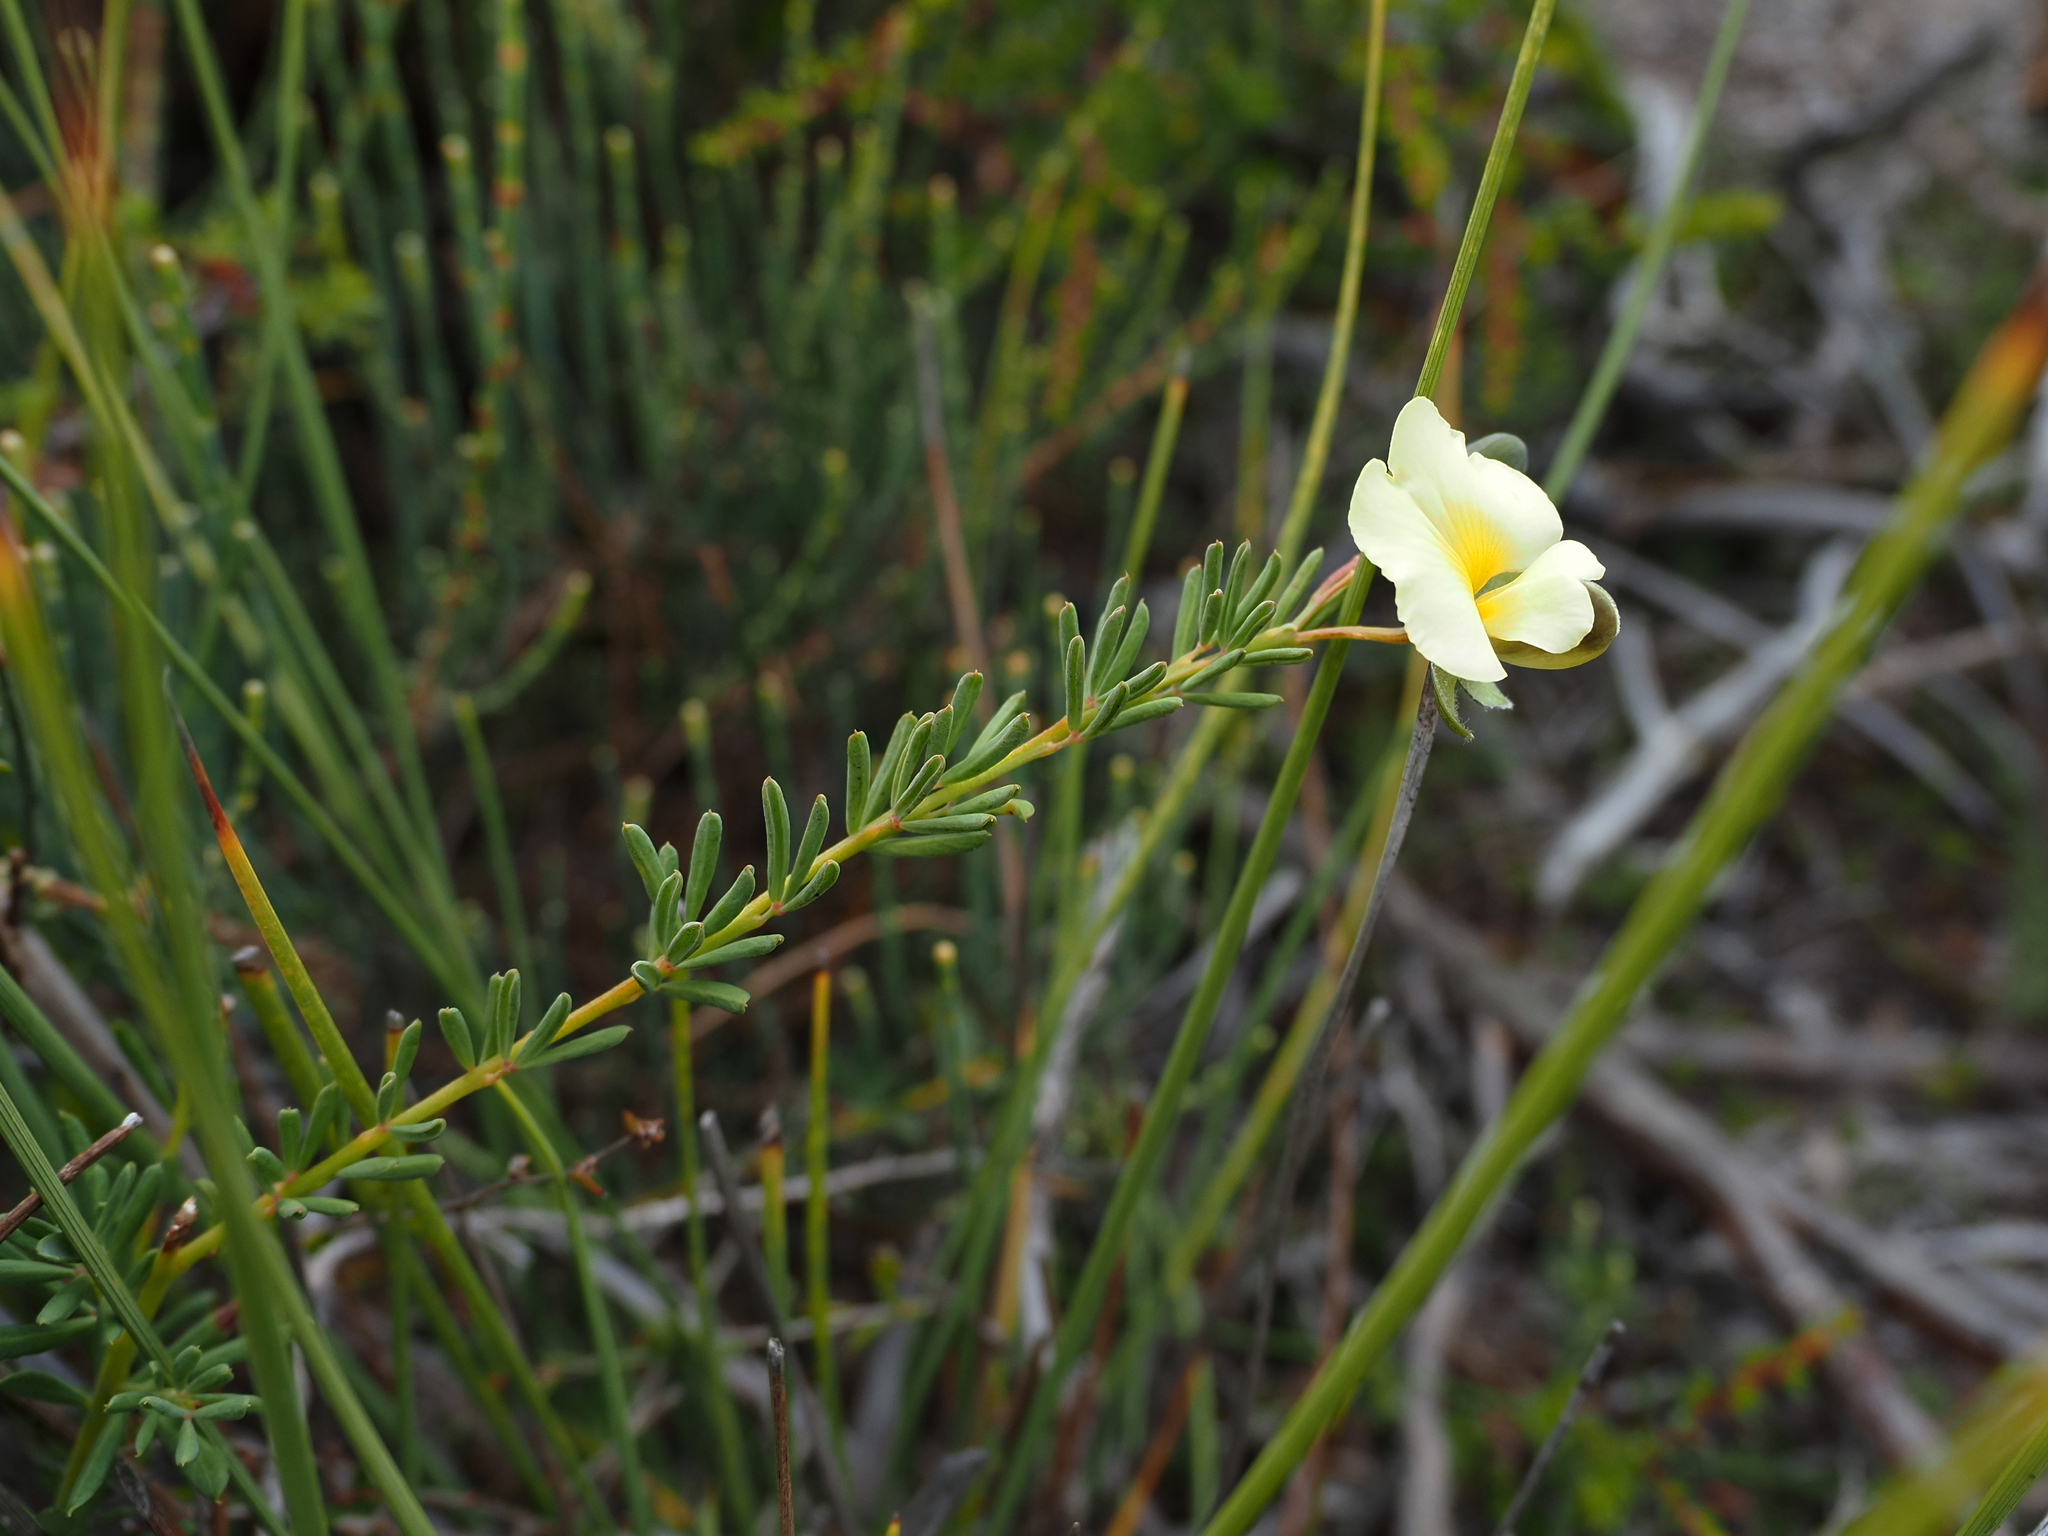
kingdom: Plantae
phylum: Tracheophyta
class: Magnoliopsida
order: Fabales
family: Fabaceae
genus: Gompholobium
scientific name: Gompholobium huegelii
